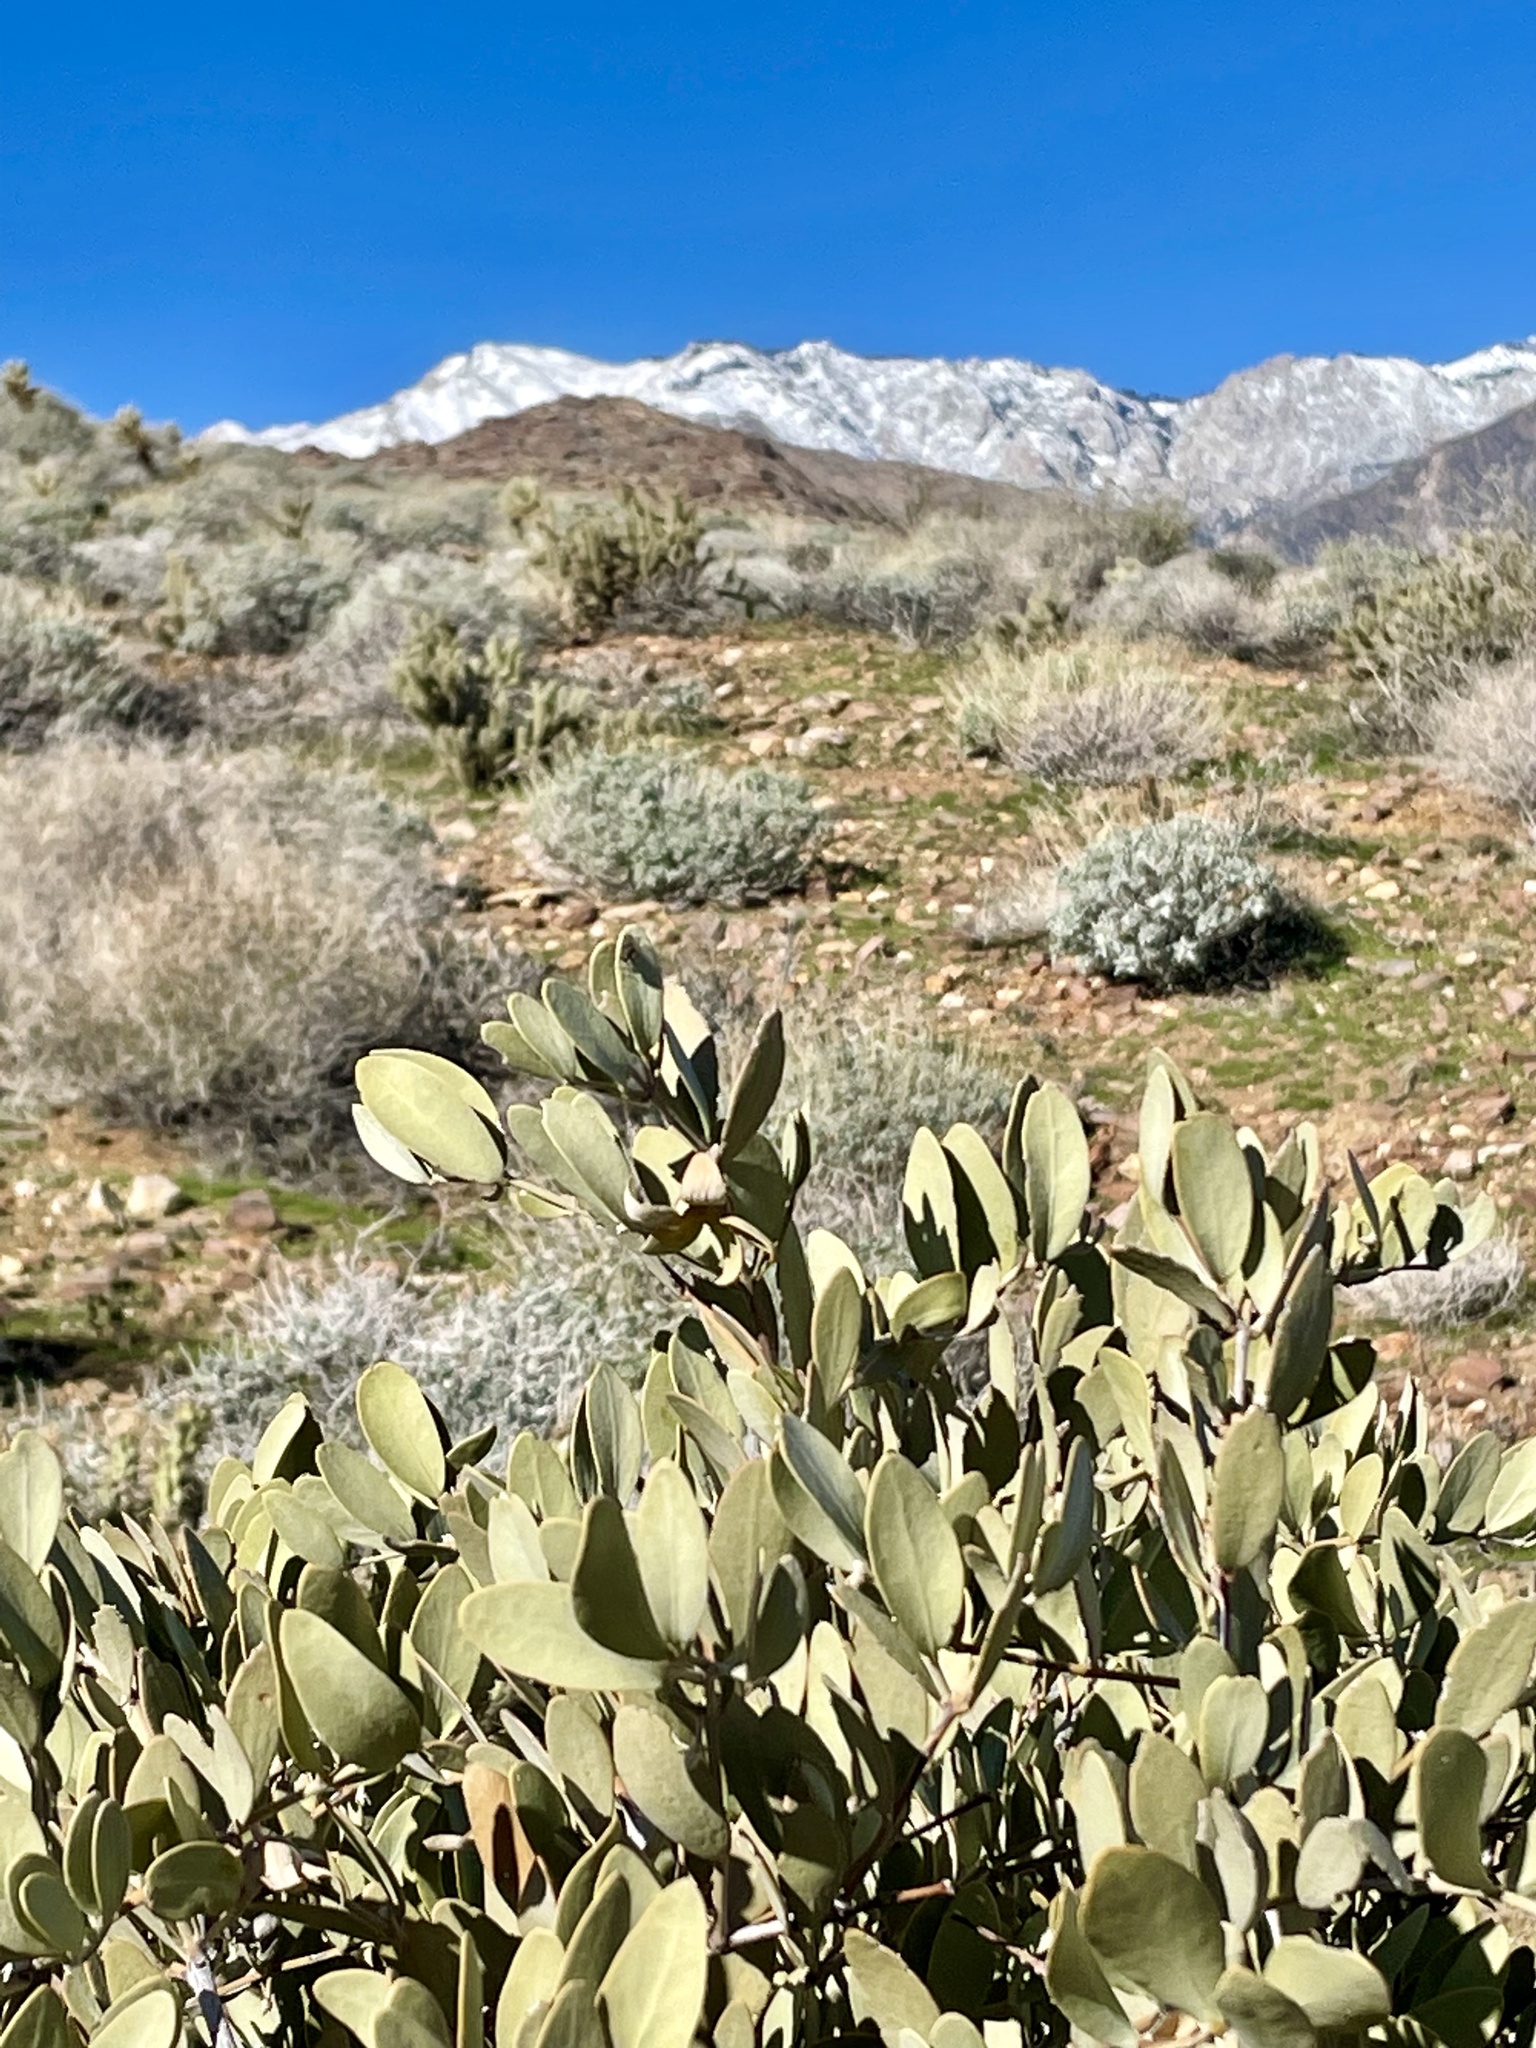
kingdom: Plantae
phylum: Tracheophyta
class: Magnoliopsida
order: Caryophyllales
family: Simmondsiaceae
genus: Simmondsia
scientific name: Simmondsia chinensis
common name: Jojoba
